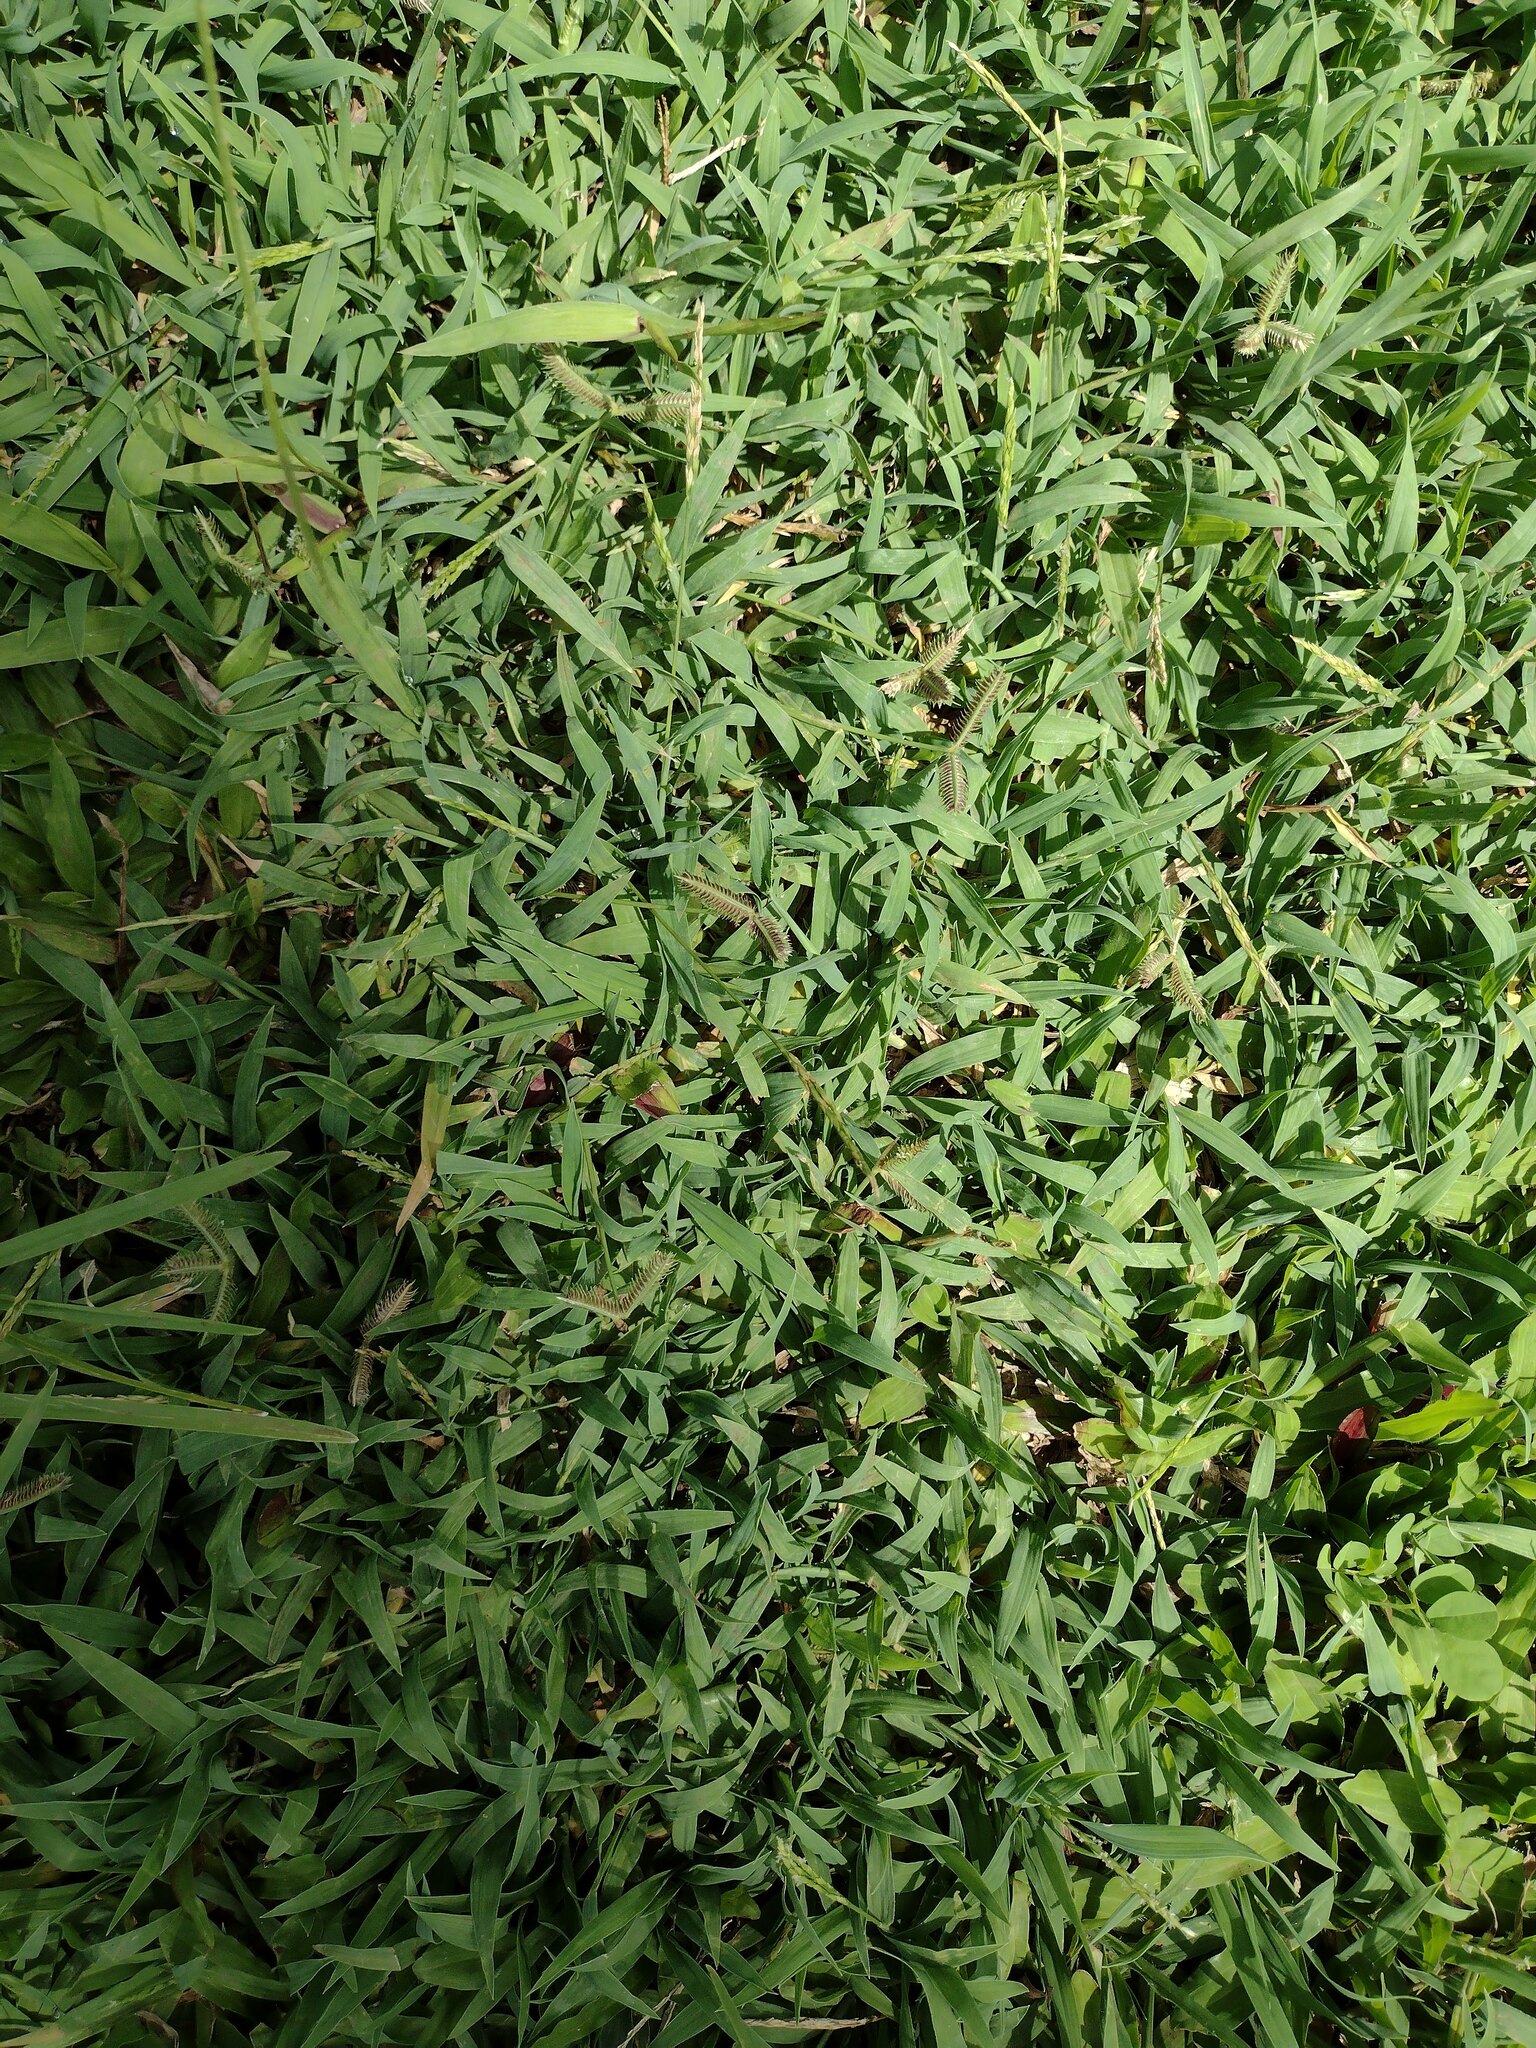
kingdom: Plantae
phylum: Tracheophyta
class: Liliopsida
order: Poales
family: Poaceae
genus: Dactyloctenium
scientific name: Dactyloctenium aegyptium
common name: Egyptian grass
